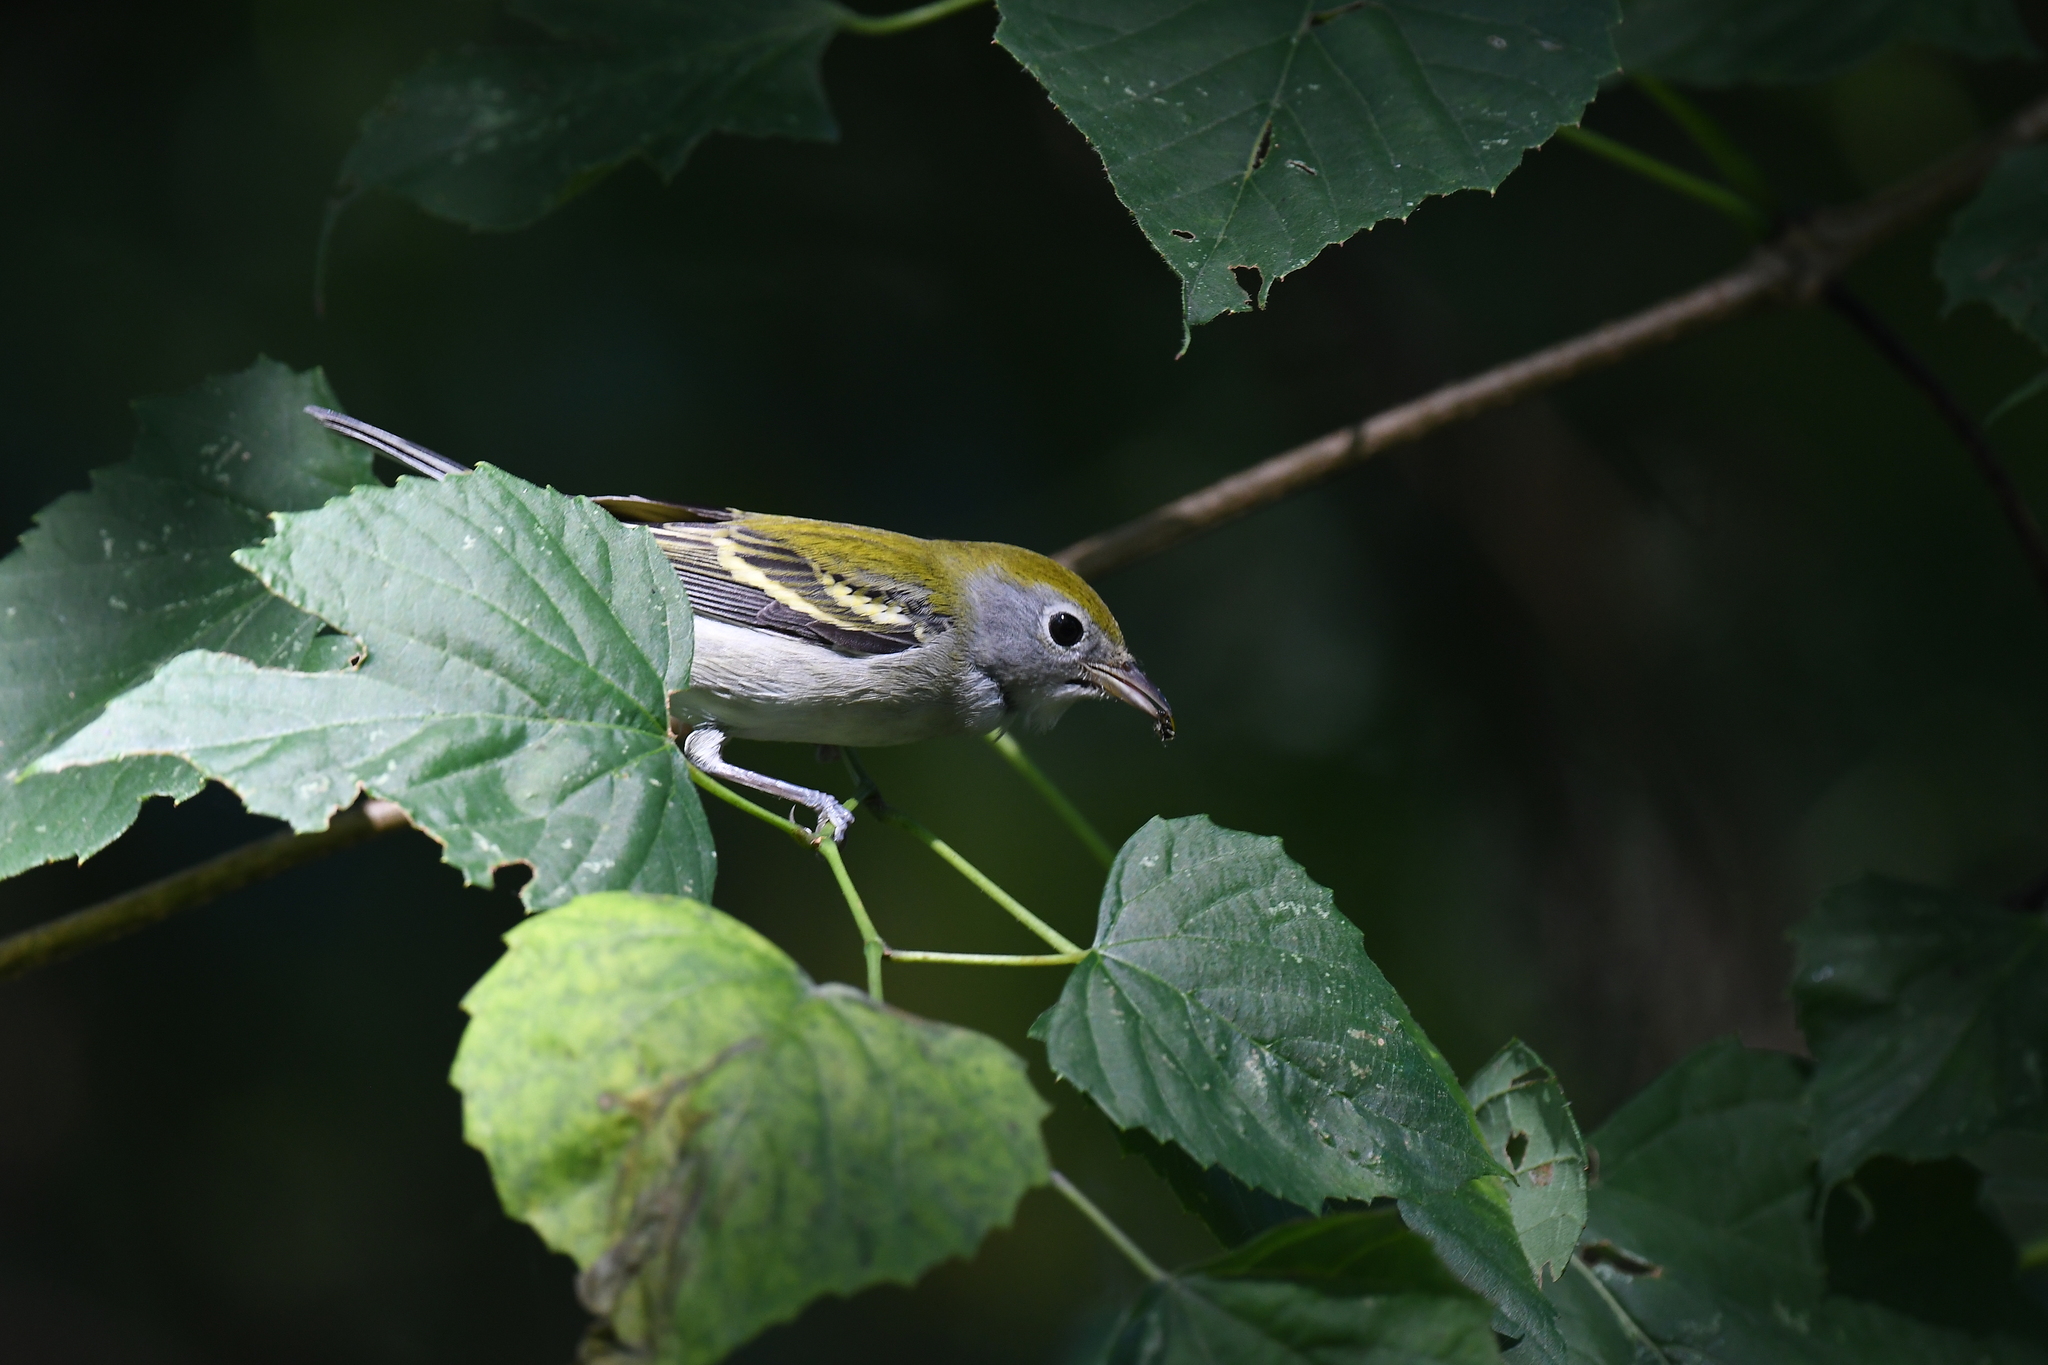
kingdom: Animalia
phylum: Chordata
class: Aves
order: Passeriformes
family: Parulidae
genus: Setophaga
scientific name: Setophaga pensylvanica
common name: Chestnut-sided warbler
